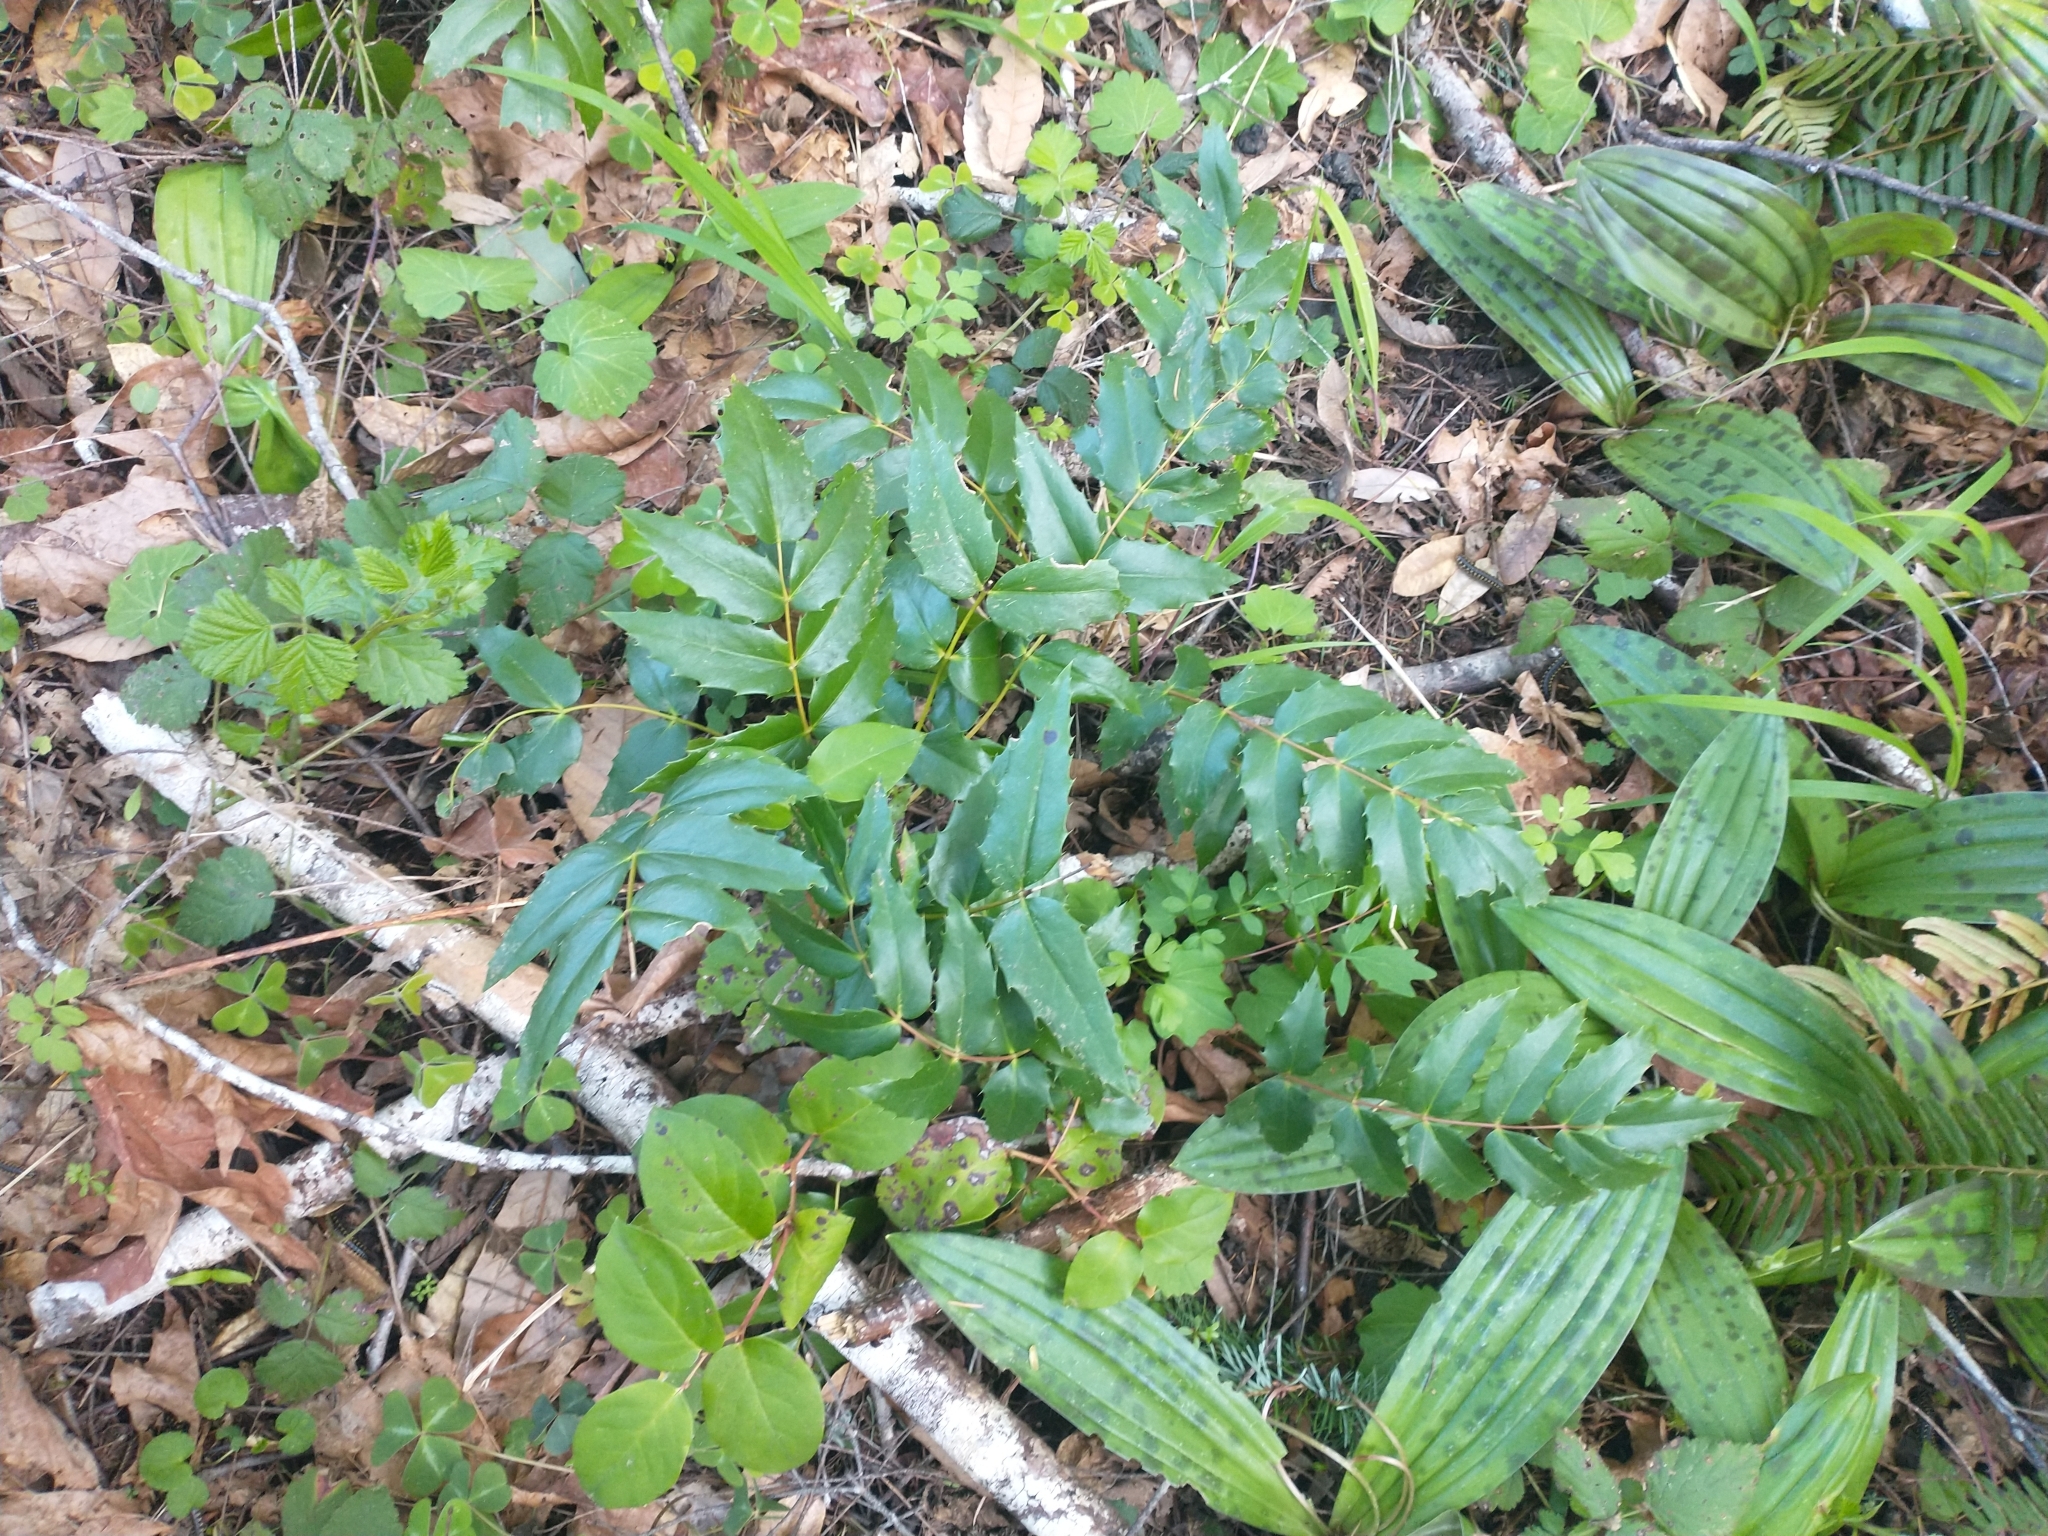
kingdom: Plantae
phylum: Tracheophyta
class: Magnoliopsida
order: Ranunculales
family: Berberidaceae
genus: Mahonia
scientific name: Mahonia nervosa
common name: Cascade oregon-grape
